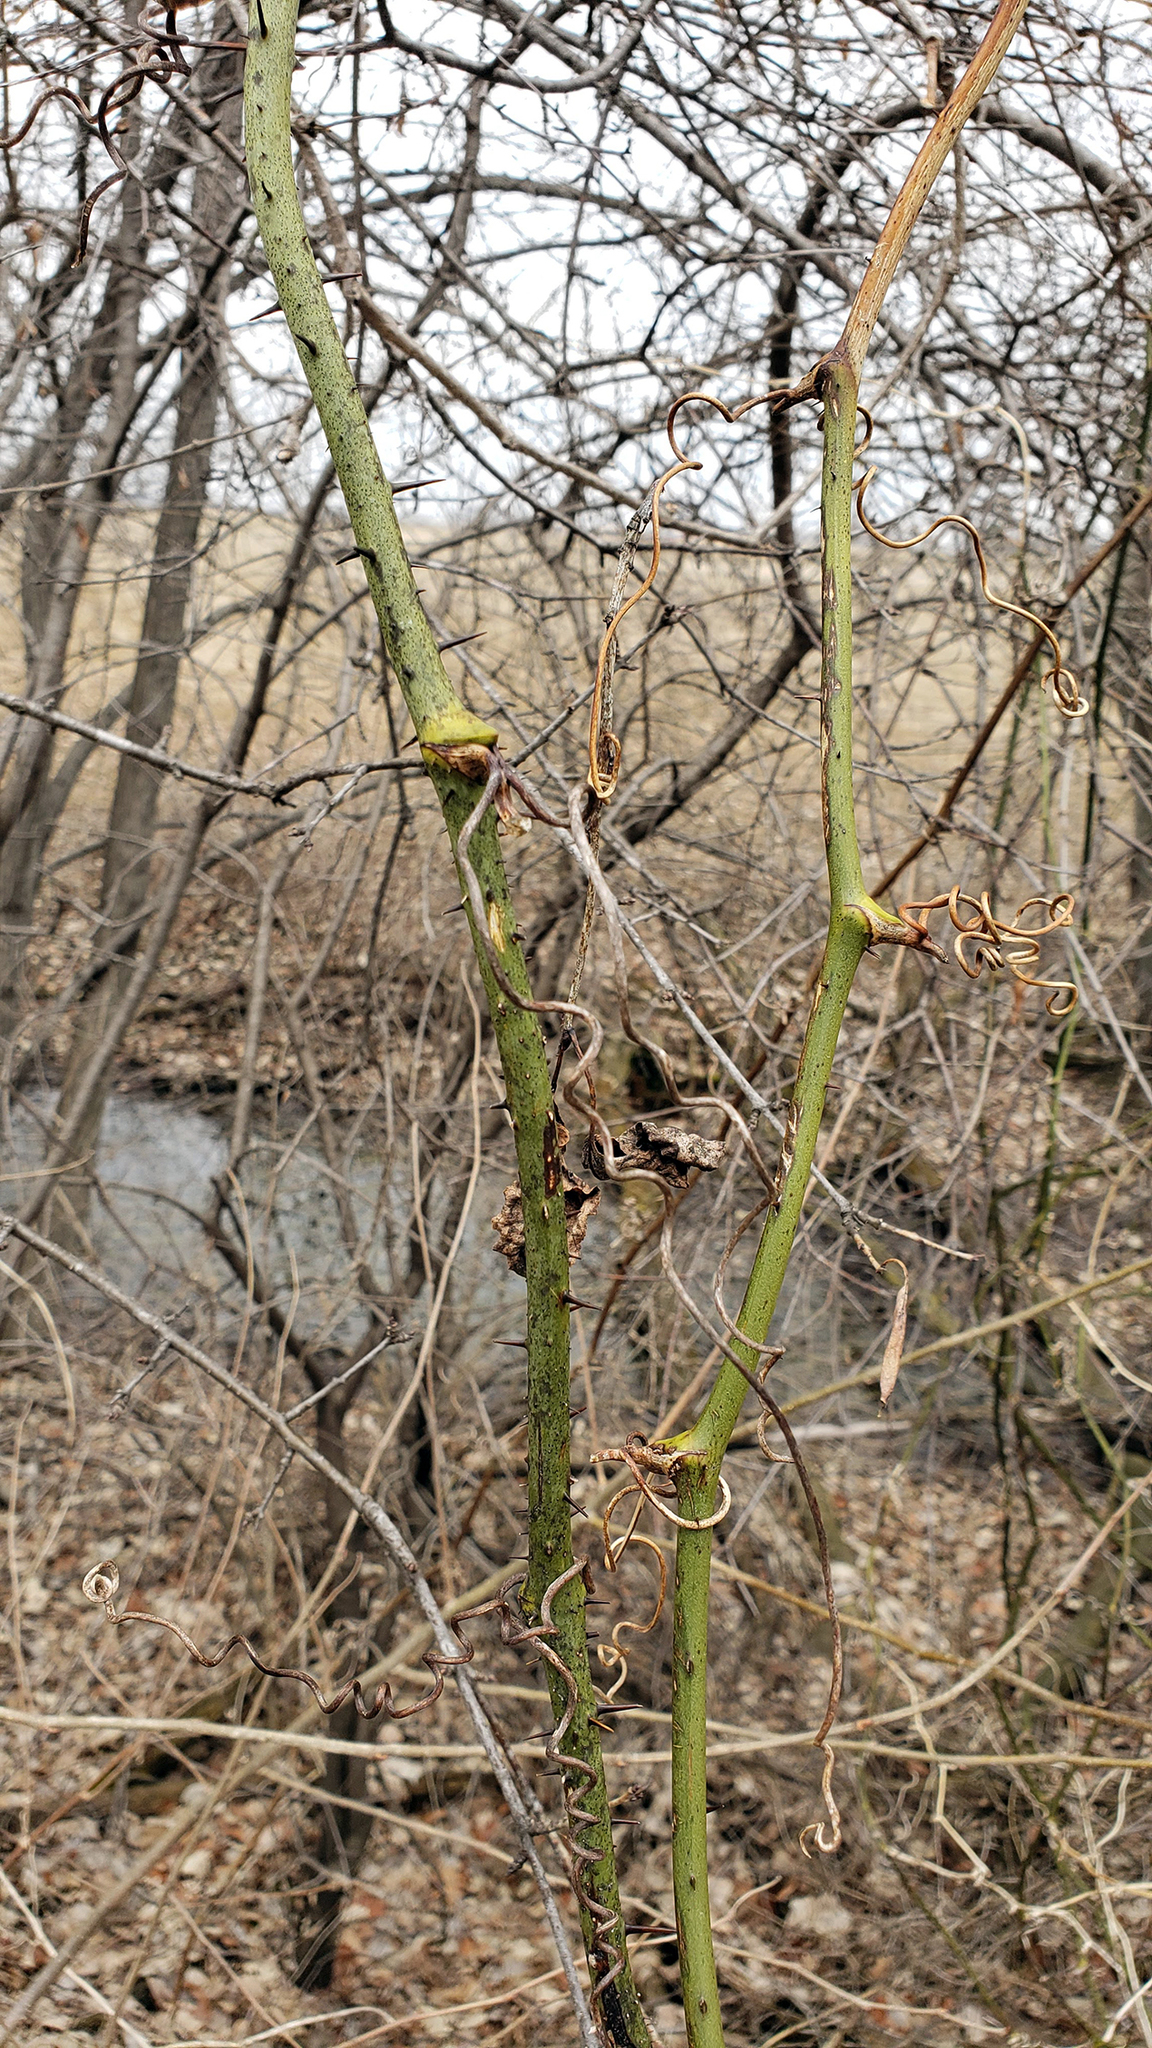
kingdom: Plantae
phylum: Tracheophyta
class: Liliopsida
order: Liliales
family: Smilacaceae
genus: Smilax
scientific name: Smilax tamnoides
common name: Hellfetter
